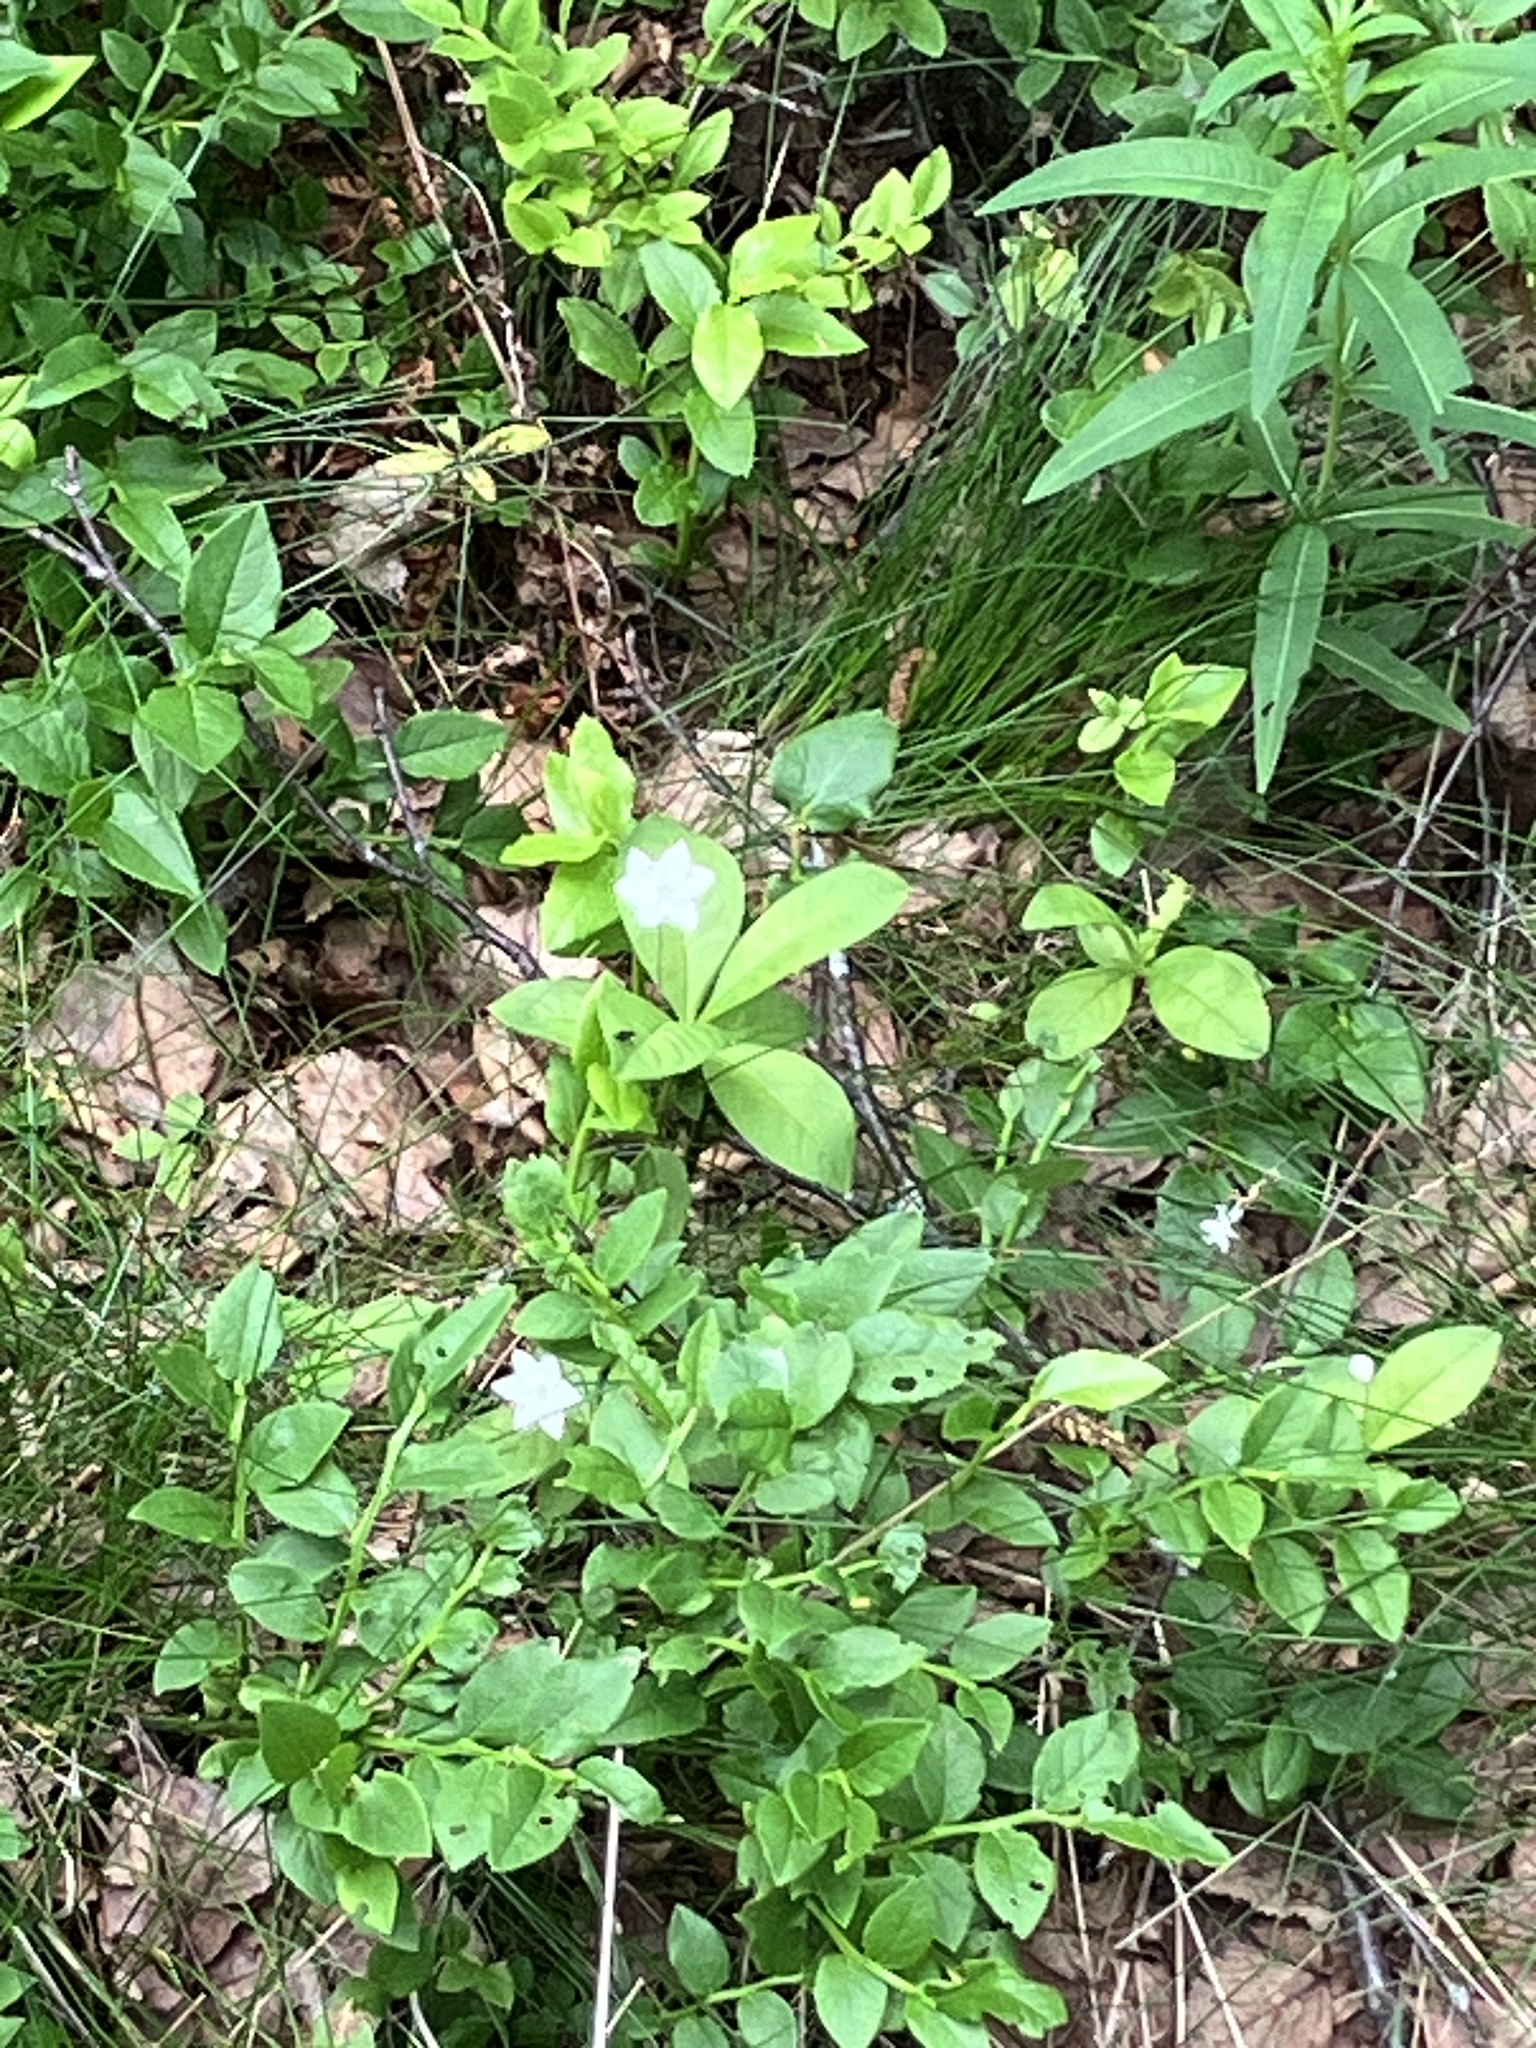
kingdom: Plantae
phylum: Tracheophyta
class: Magnoliopsida
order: Ericales
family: Primulaceae
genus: Lysimachia
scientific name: Lysimachia europaea
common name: Arctic starflower
